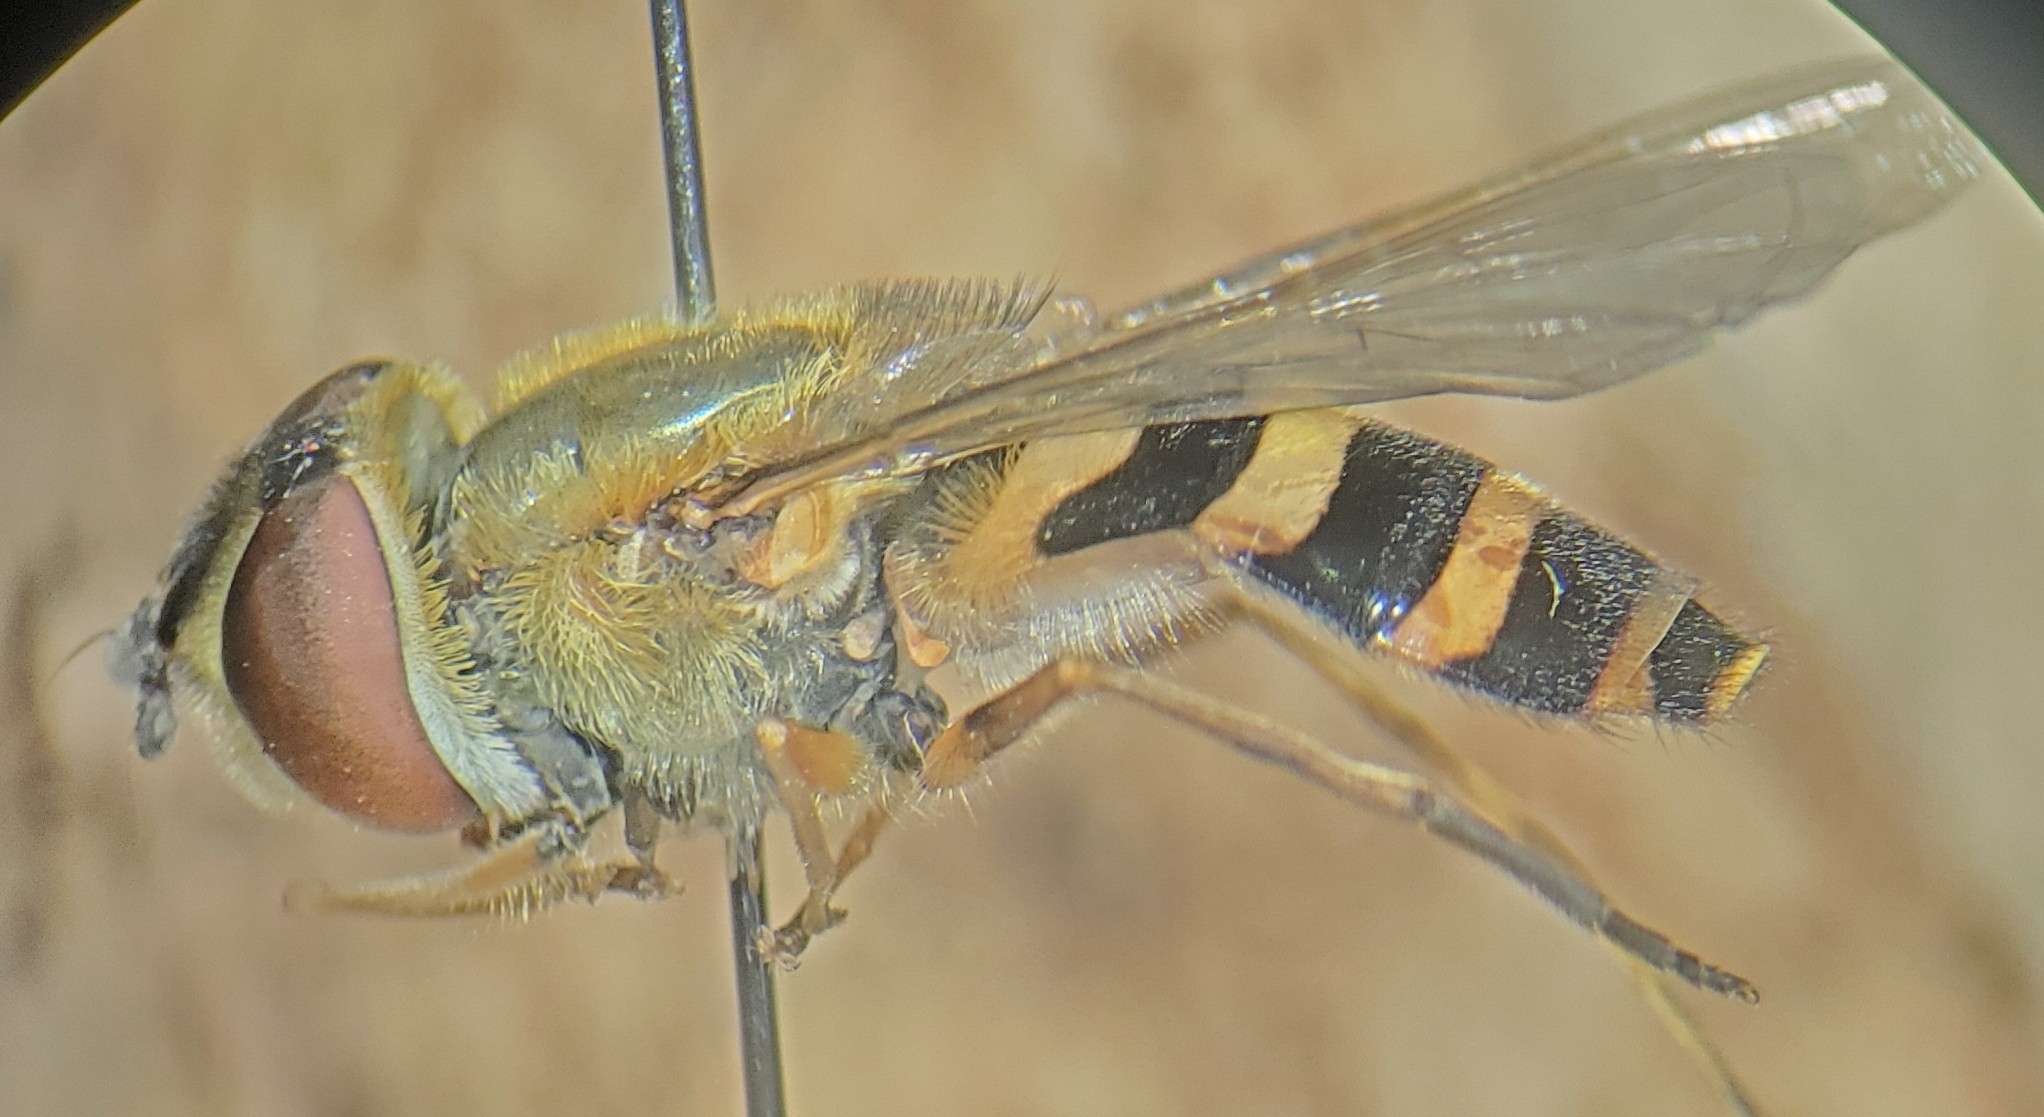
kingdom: Animalia
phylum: Arthropoda
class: Insecta
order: Diptera
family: Syrphidae
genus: Syrphus
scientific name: Syrphus rectus
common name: Yellow-legged flower fly
